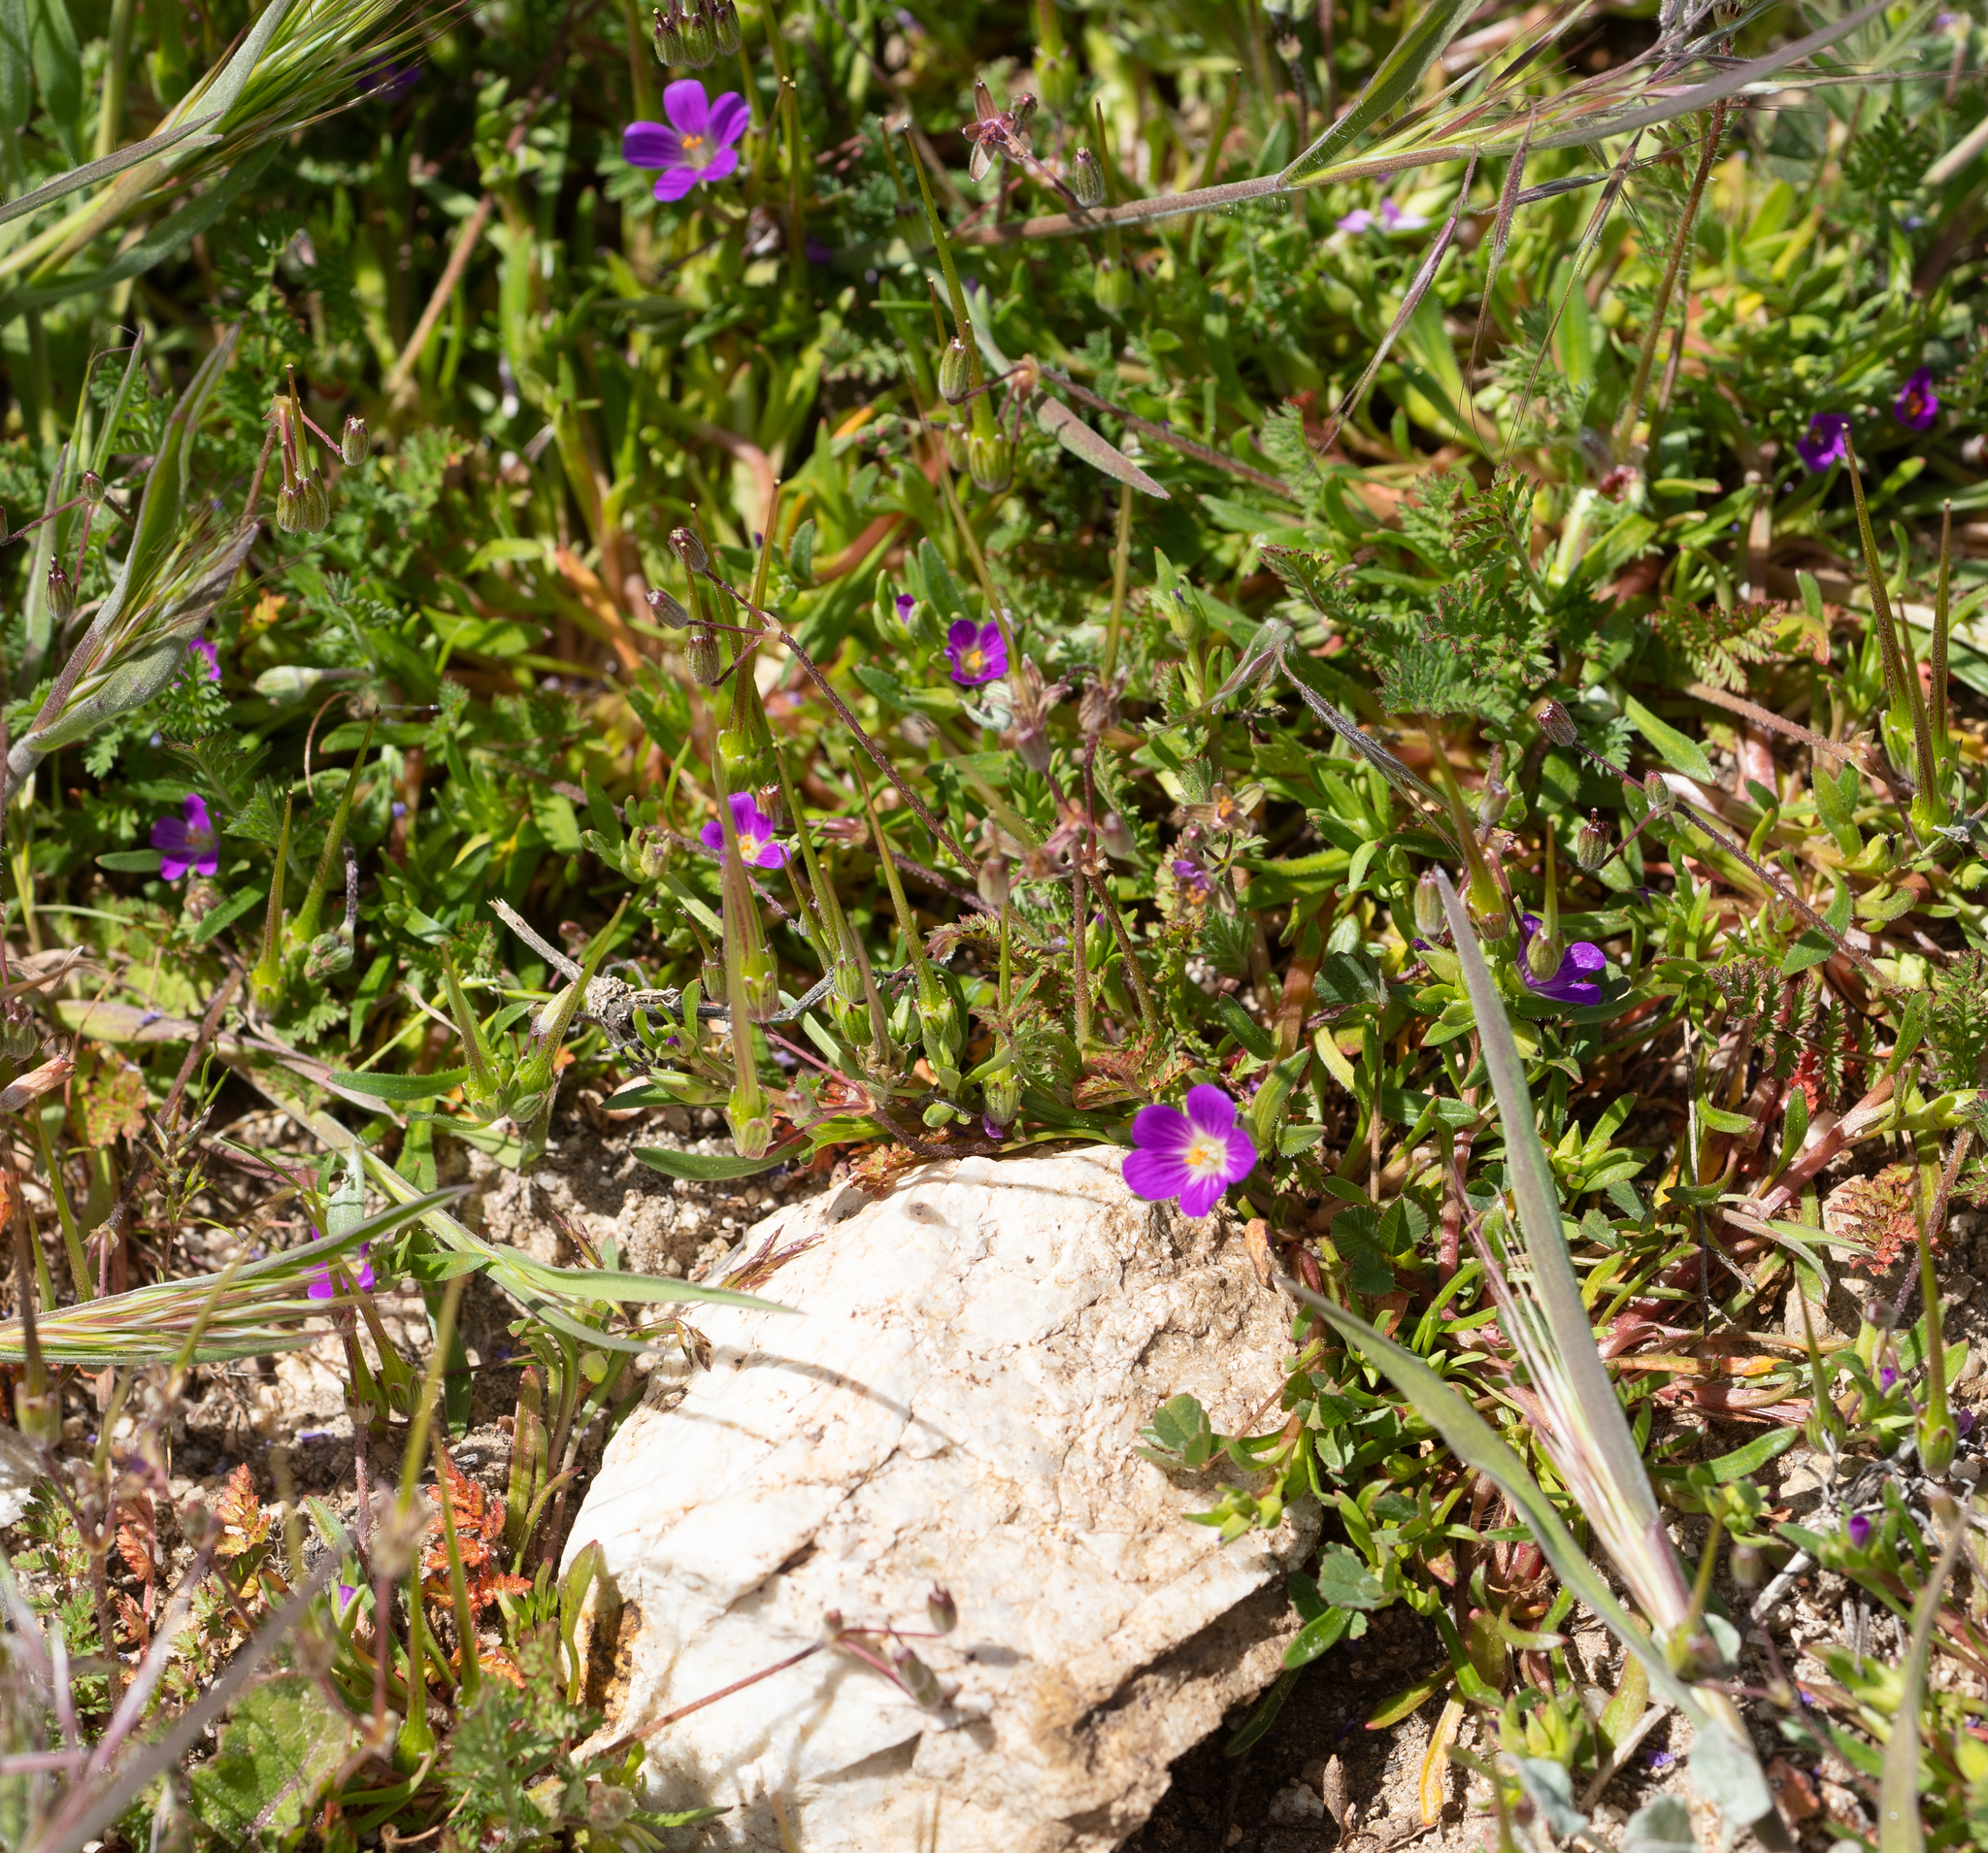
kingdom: Plantae
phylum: Tracheophyta
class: Magnoliopsida
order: Caryophyllales
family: Montiaceae
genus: Calandrinia
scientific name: Calandrinia menziesii
